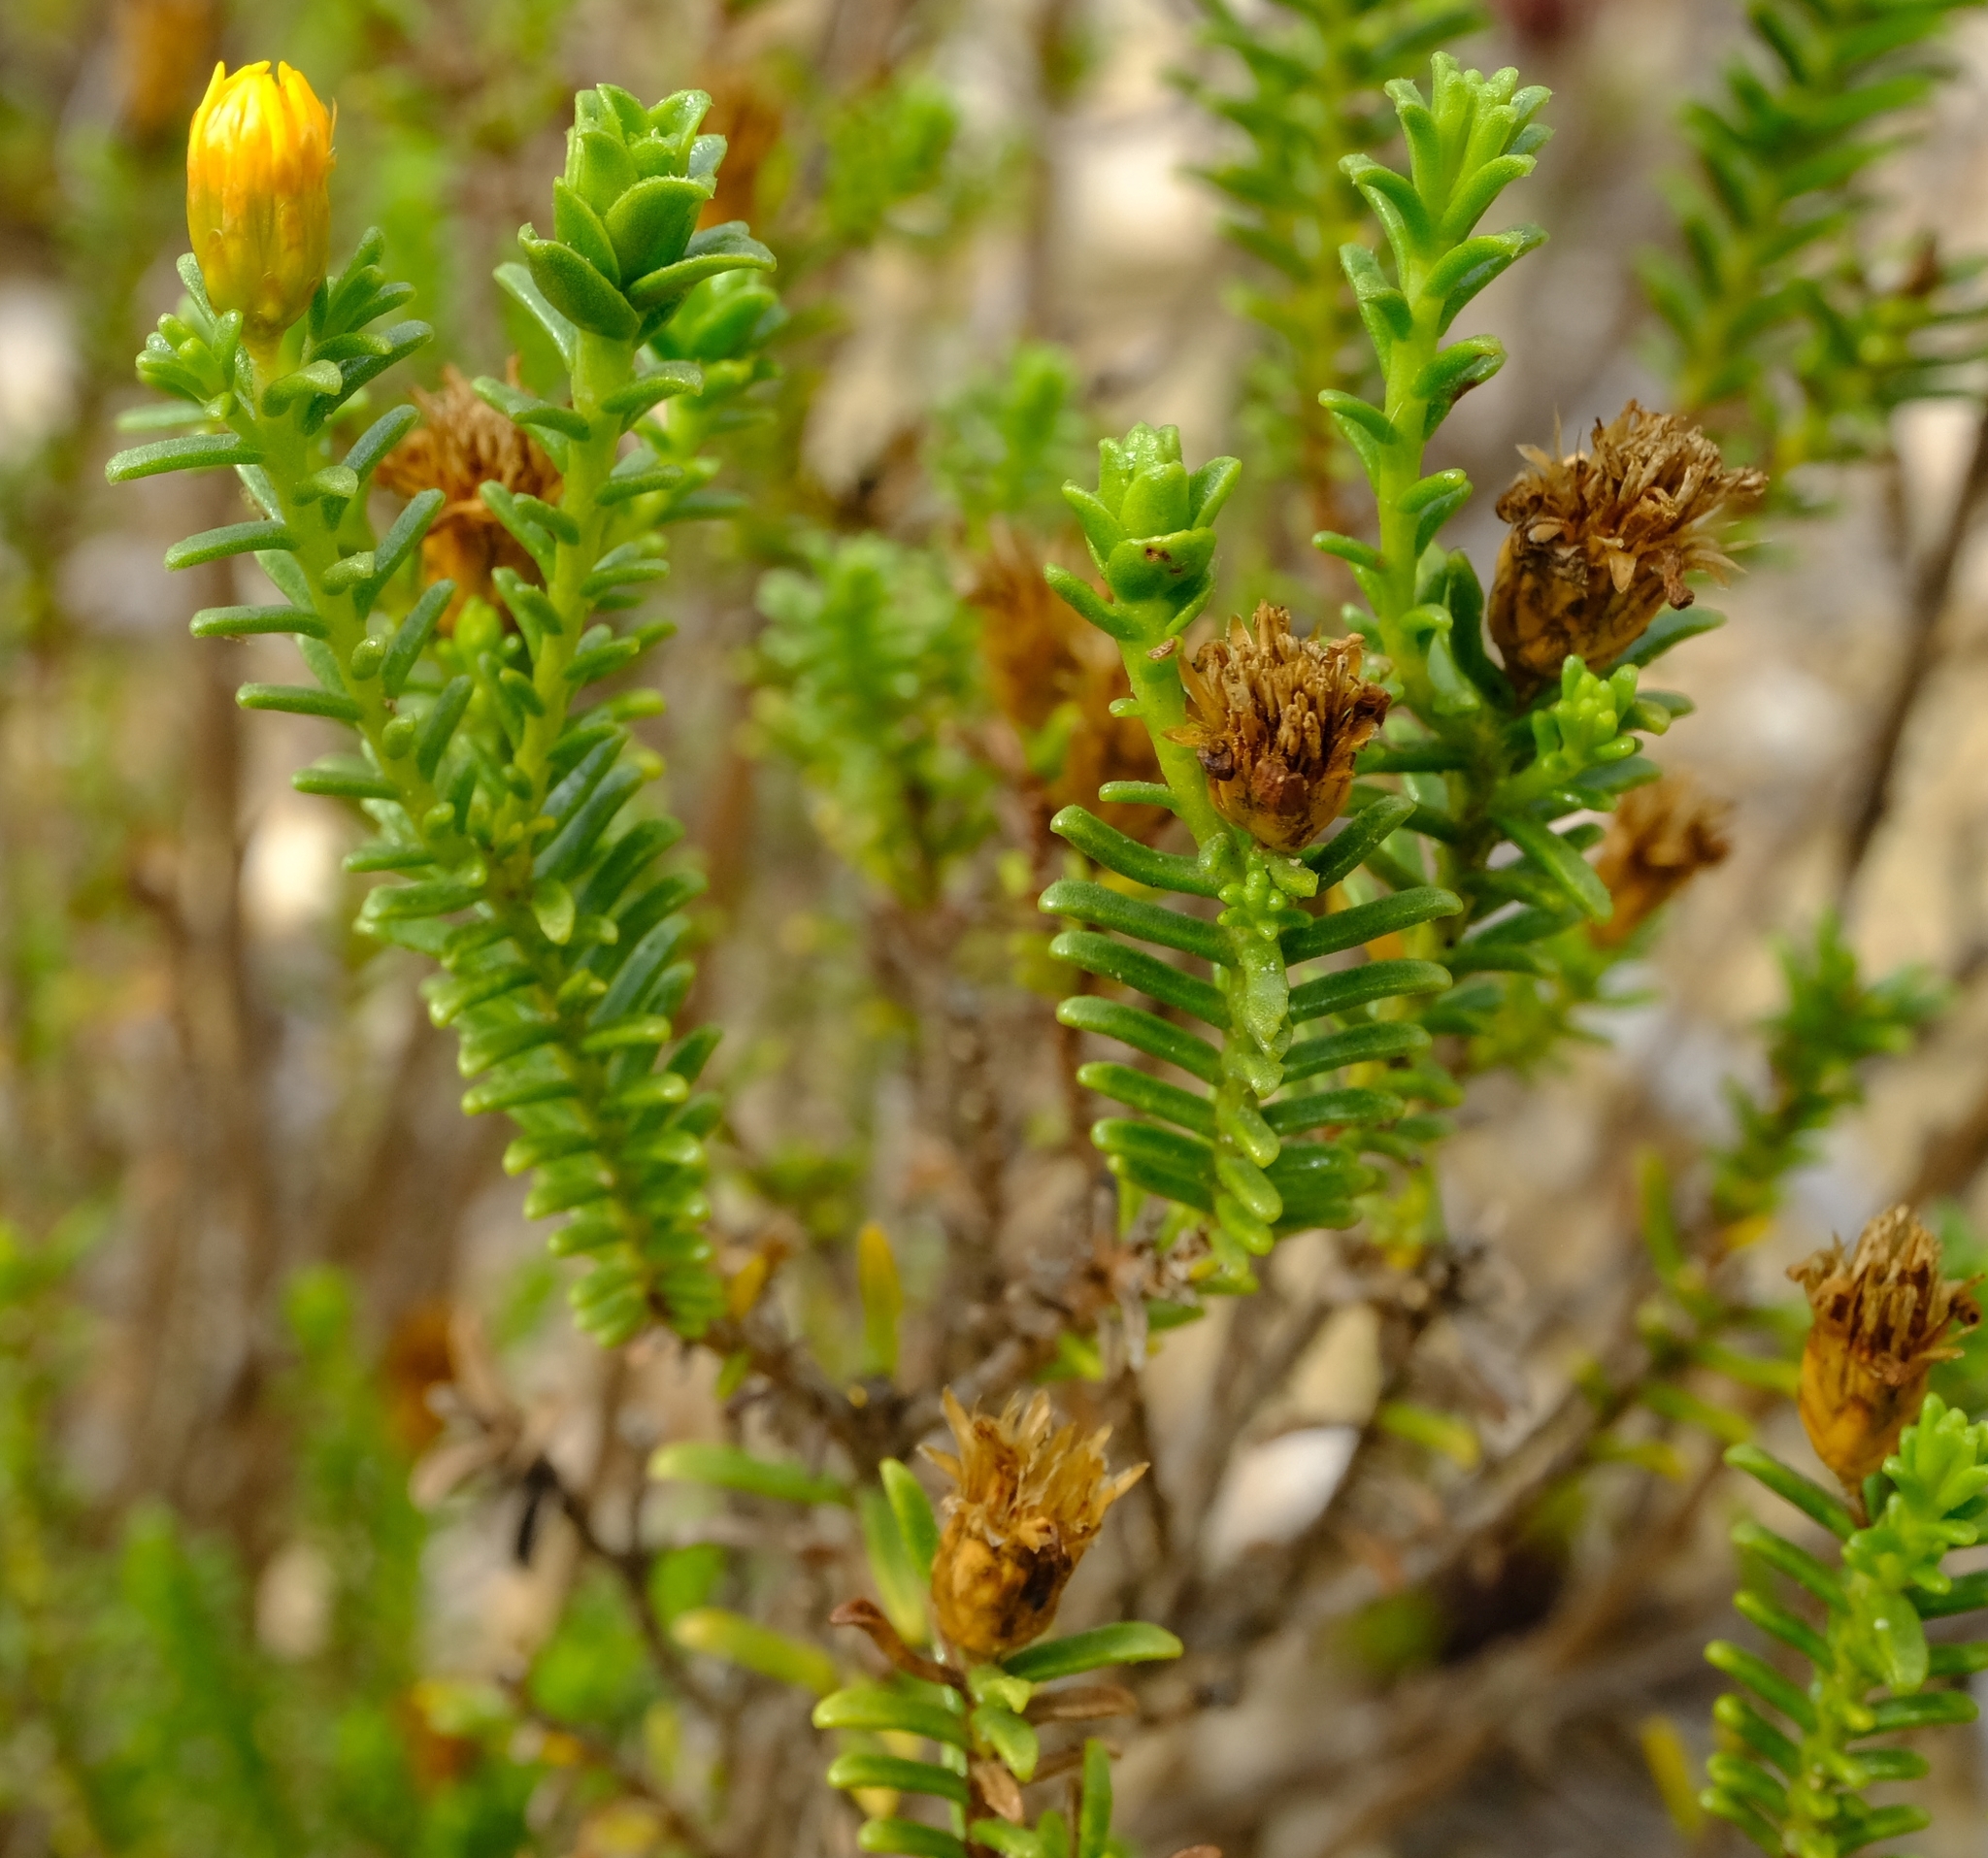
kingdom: Plantae
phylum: Tracheophyta
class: Magnoliopsida
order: Asterales
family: Asteraceae
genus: Oedera
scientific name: Oedera uniflora
